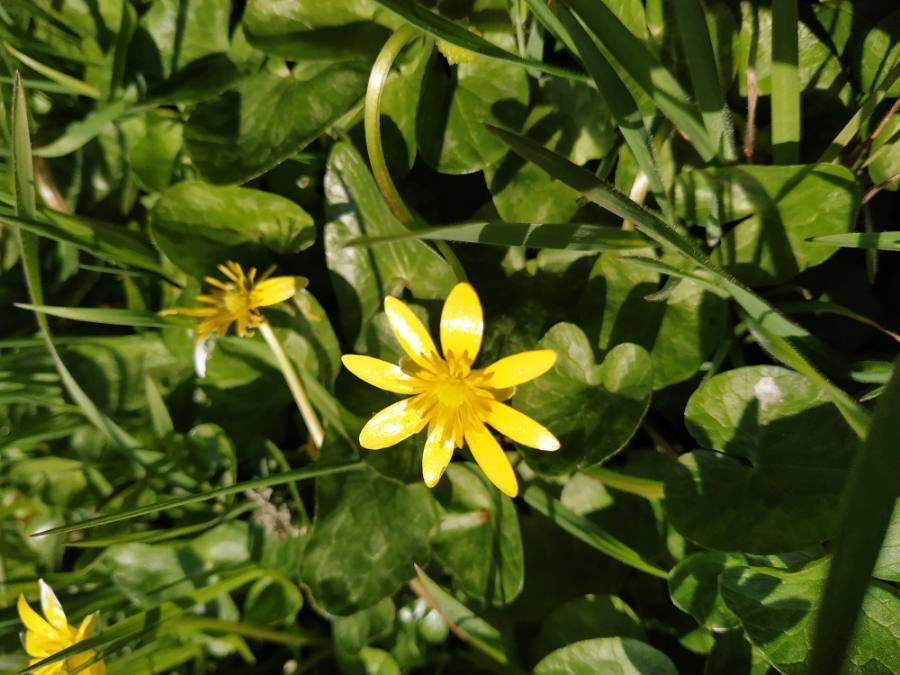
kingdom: Plantae
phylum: Tracheophyta
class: Magnoliopsida
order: Ranunculales
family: Ranunculaceae
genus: Ficaria
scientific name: Ficaria verna
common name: Lesser celandine
